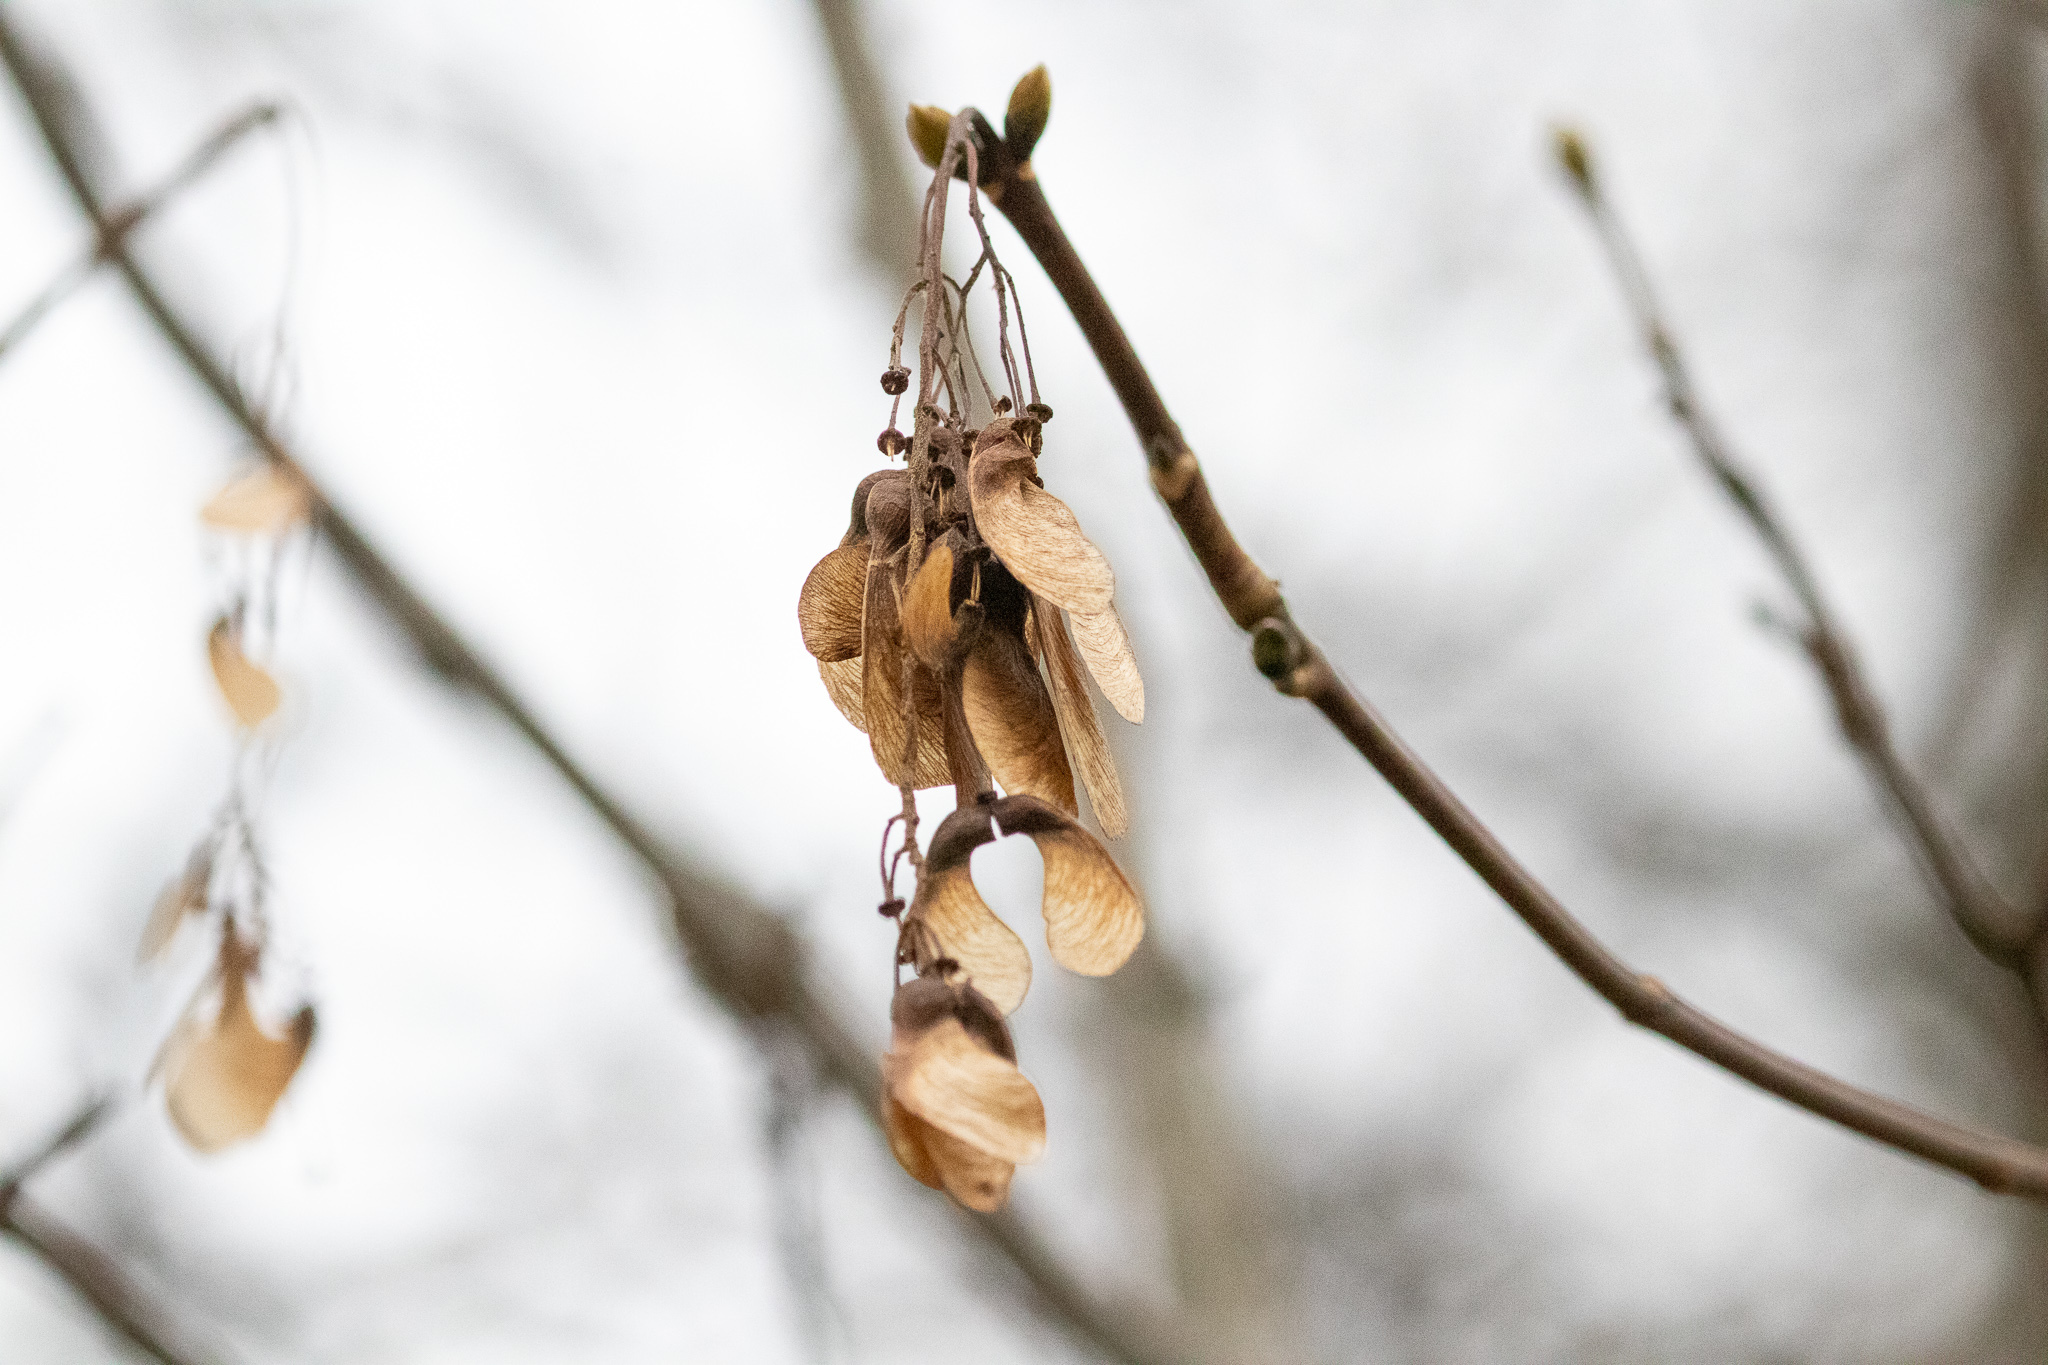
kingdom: Plantae
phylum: Tracheophyta
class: Magnoliopsida
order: Sapindales
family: Sapindaceae
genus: Acer
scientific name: Acer tataricum
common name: Tartar maple
